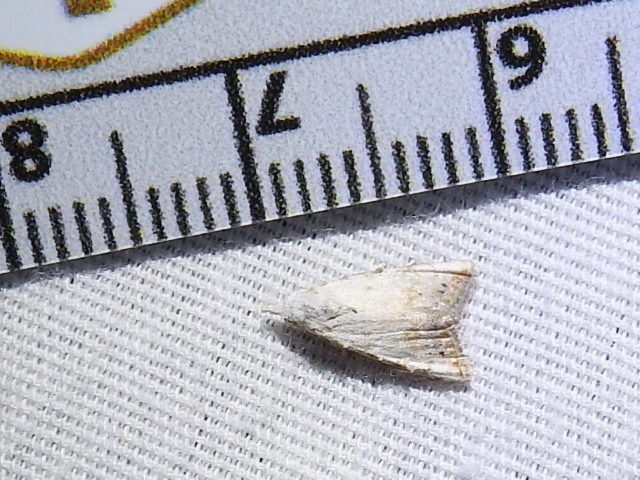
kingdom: Animalia
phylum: Arthropoda
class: Insecta
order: Lepidoptera
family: Nolidae
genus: Nola
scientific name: Nola cereella
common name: Sorghum webworm moth
